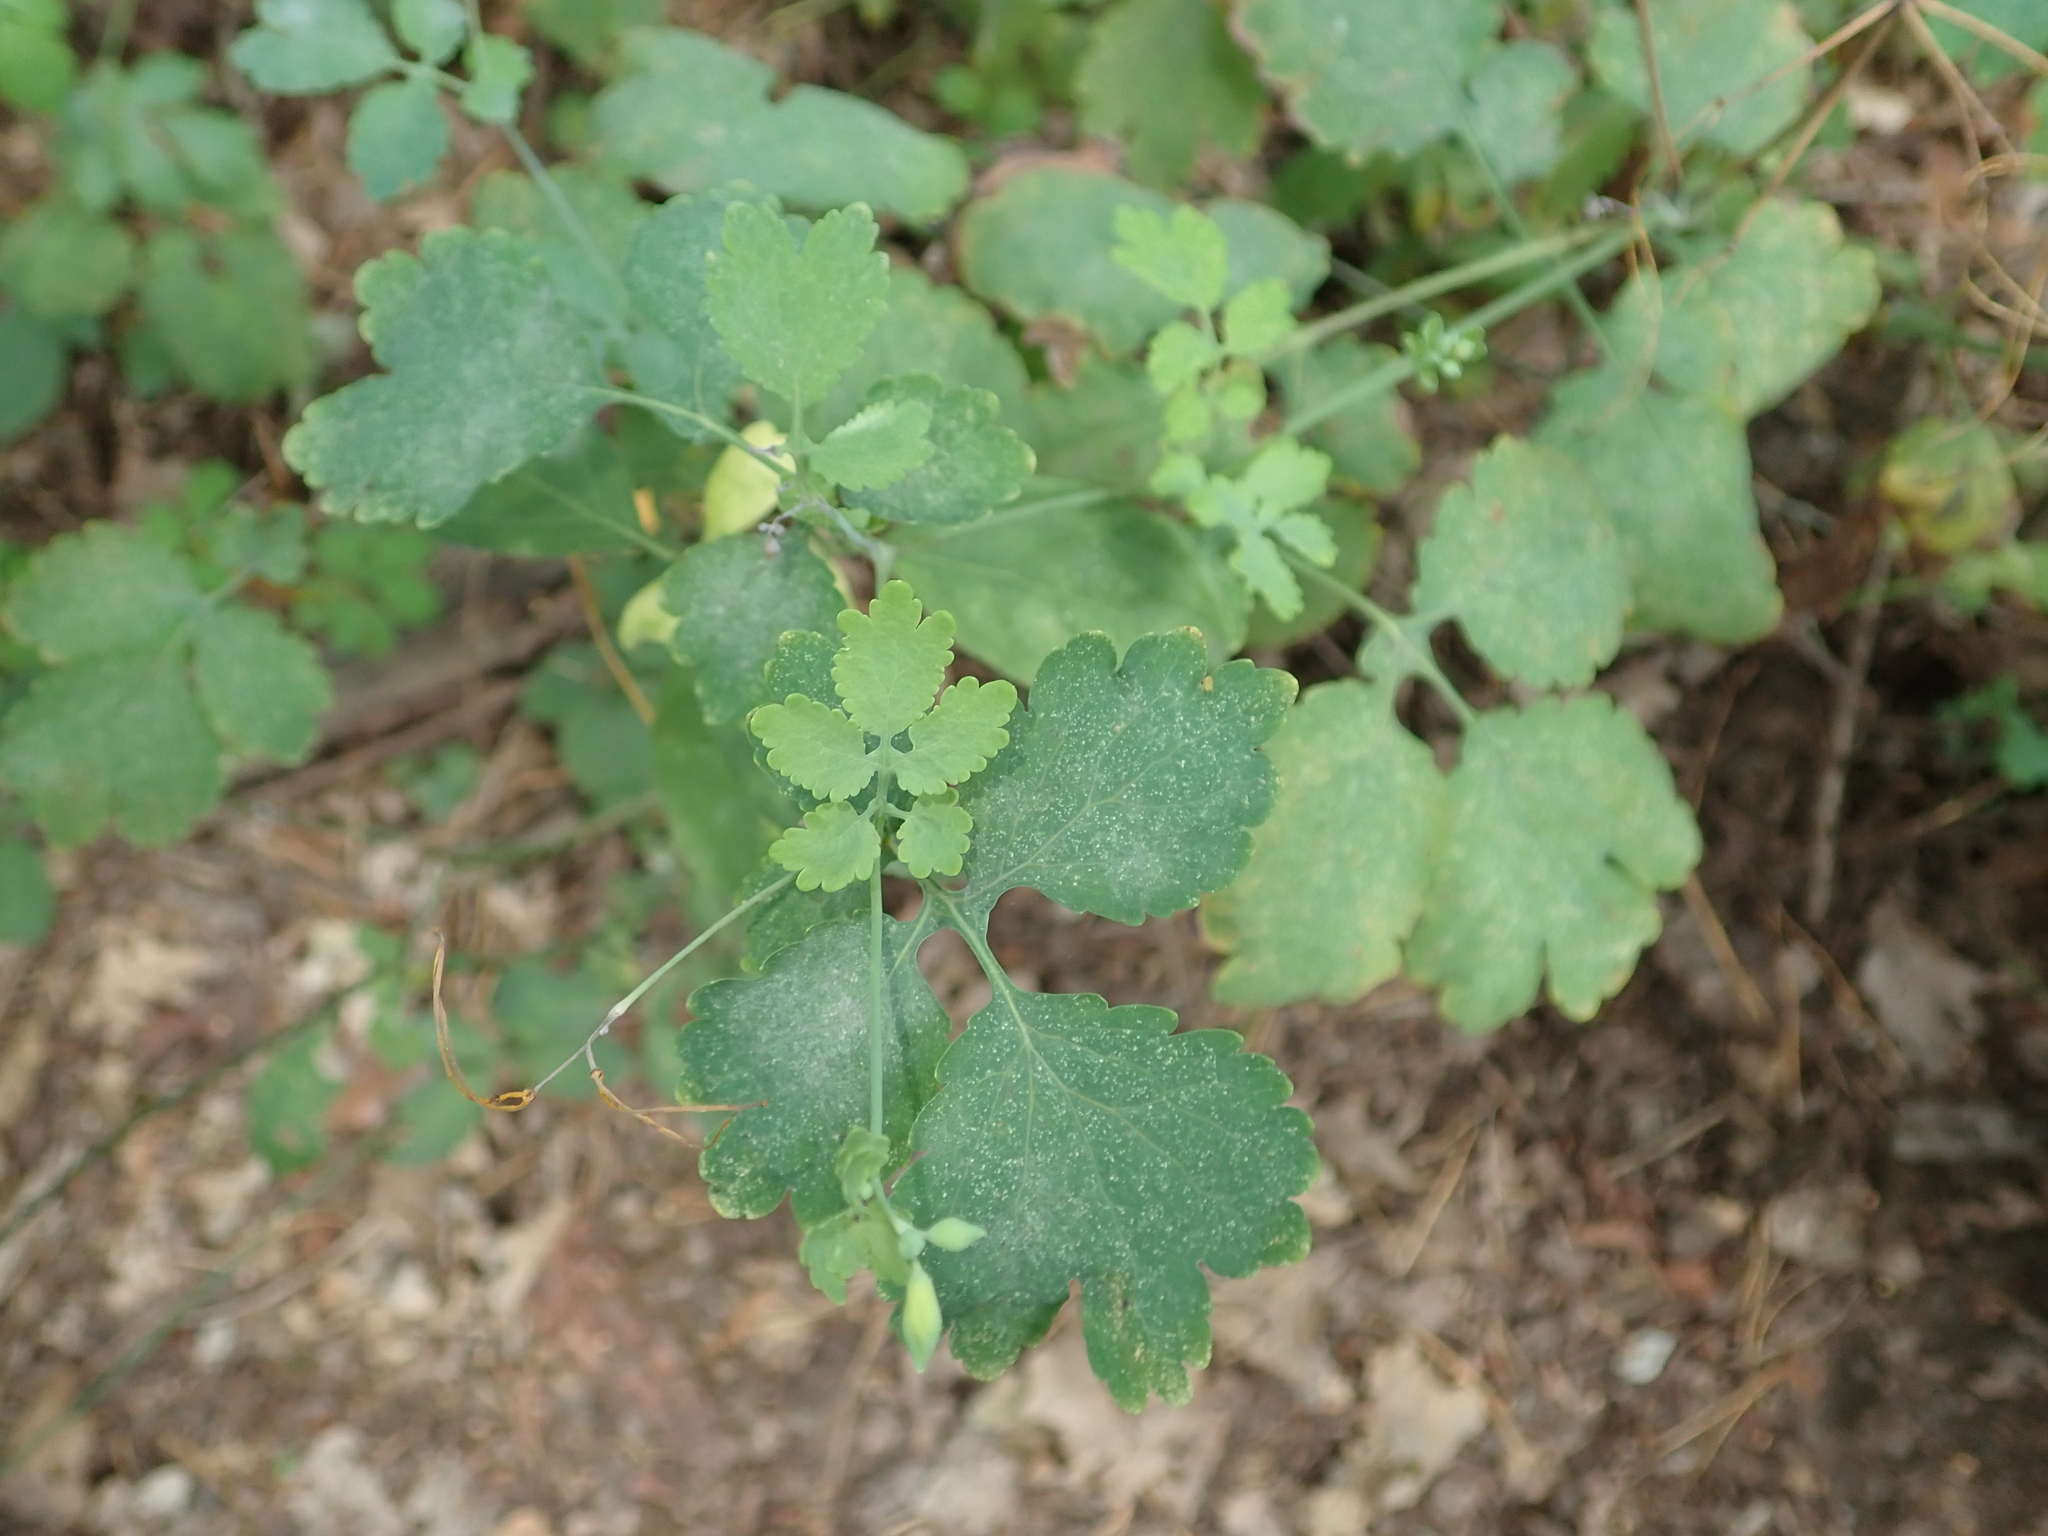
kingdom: Plantae
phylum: Tracheophyta
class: Magnoliopsida
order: Ranunculales
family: Papaveraceae
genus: Chelidonium
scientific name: Chelidonium majus
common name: Greater celandine
